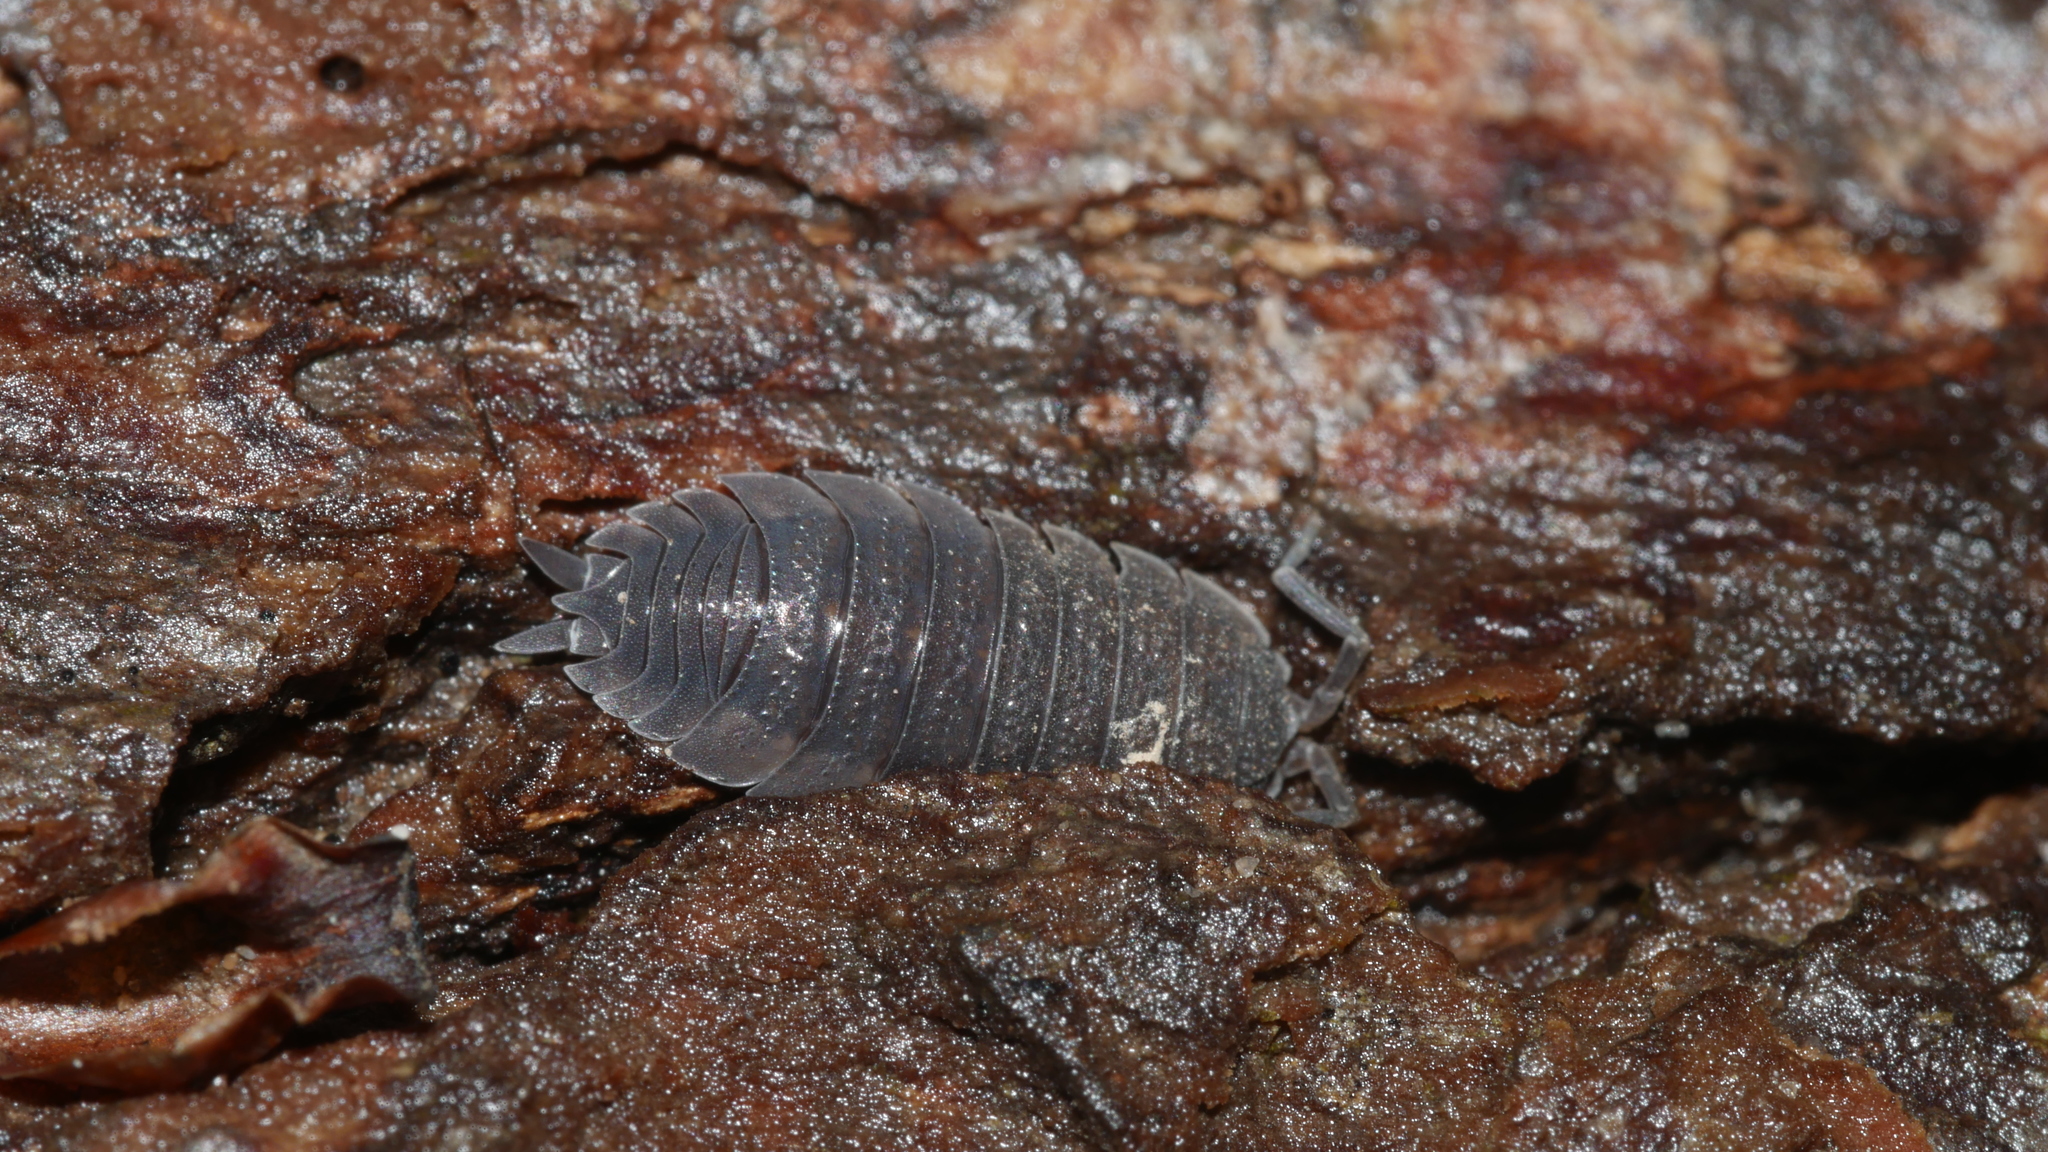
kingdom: Animalia
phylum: Arthropoda
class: Malacostraca
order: Isopoda
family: Porcellionidae
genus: Porcellio
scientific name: Porcellio scaber
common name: Common rough woodlouse
